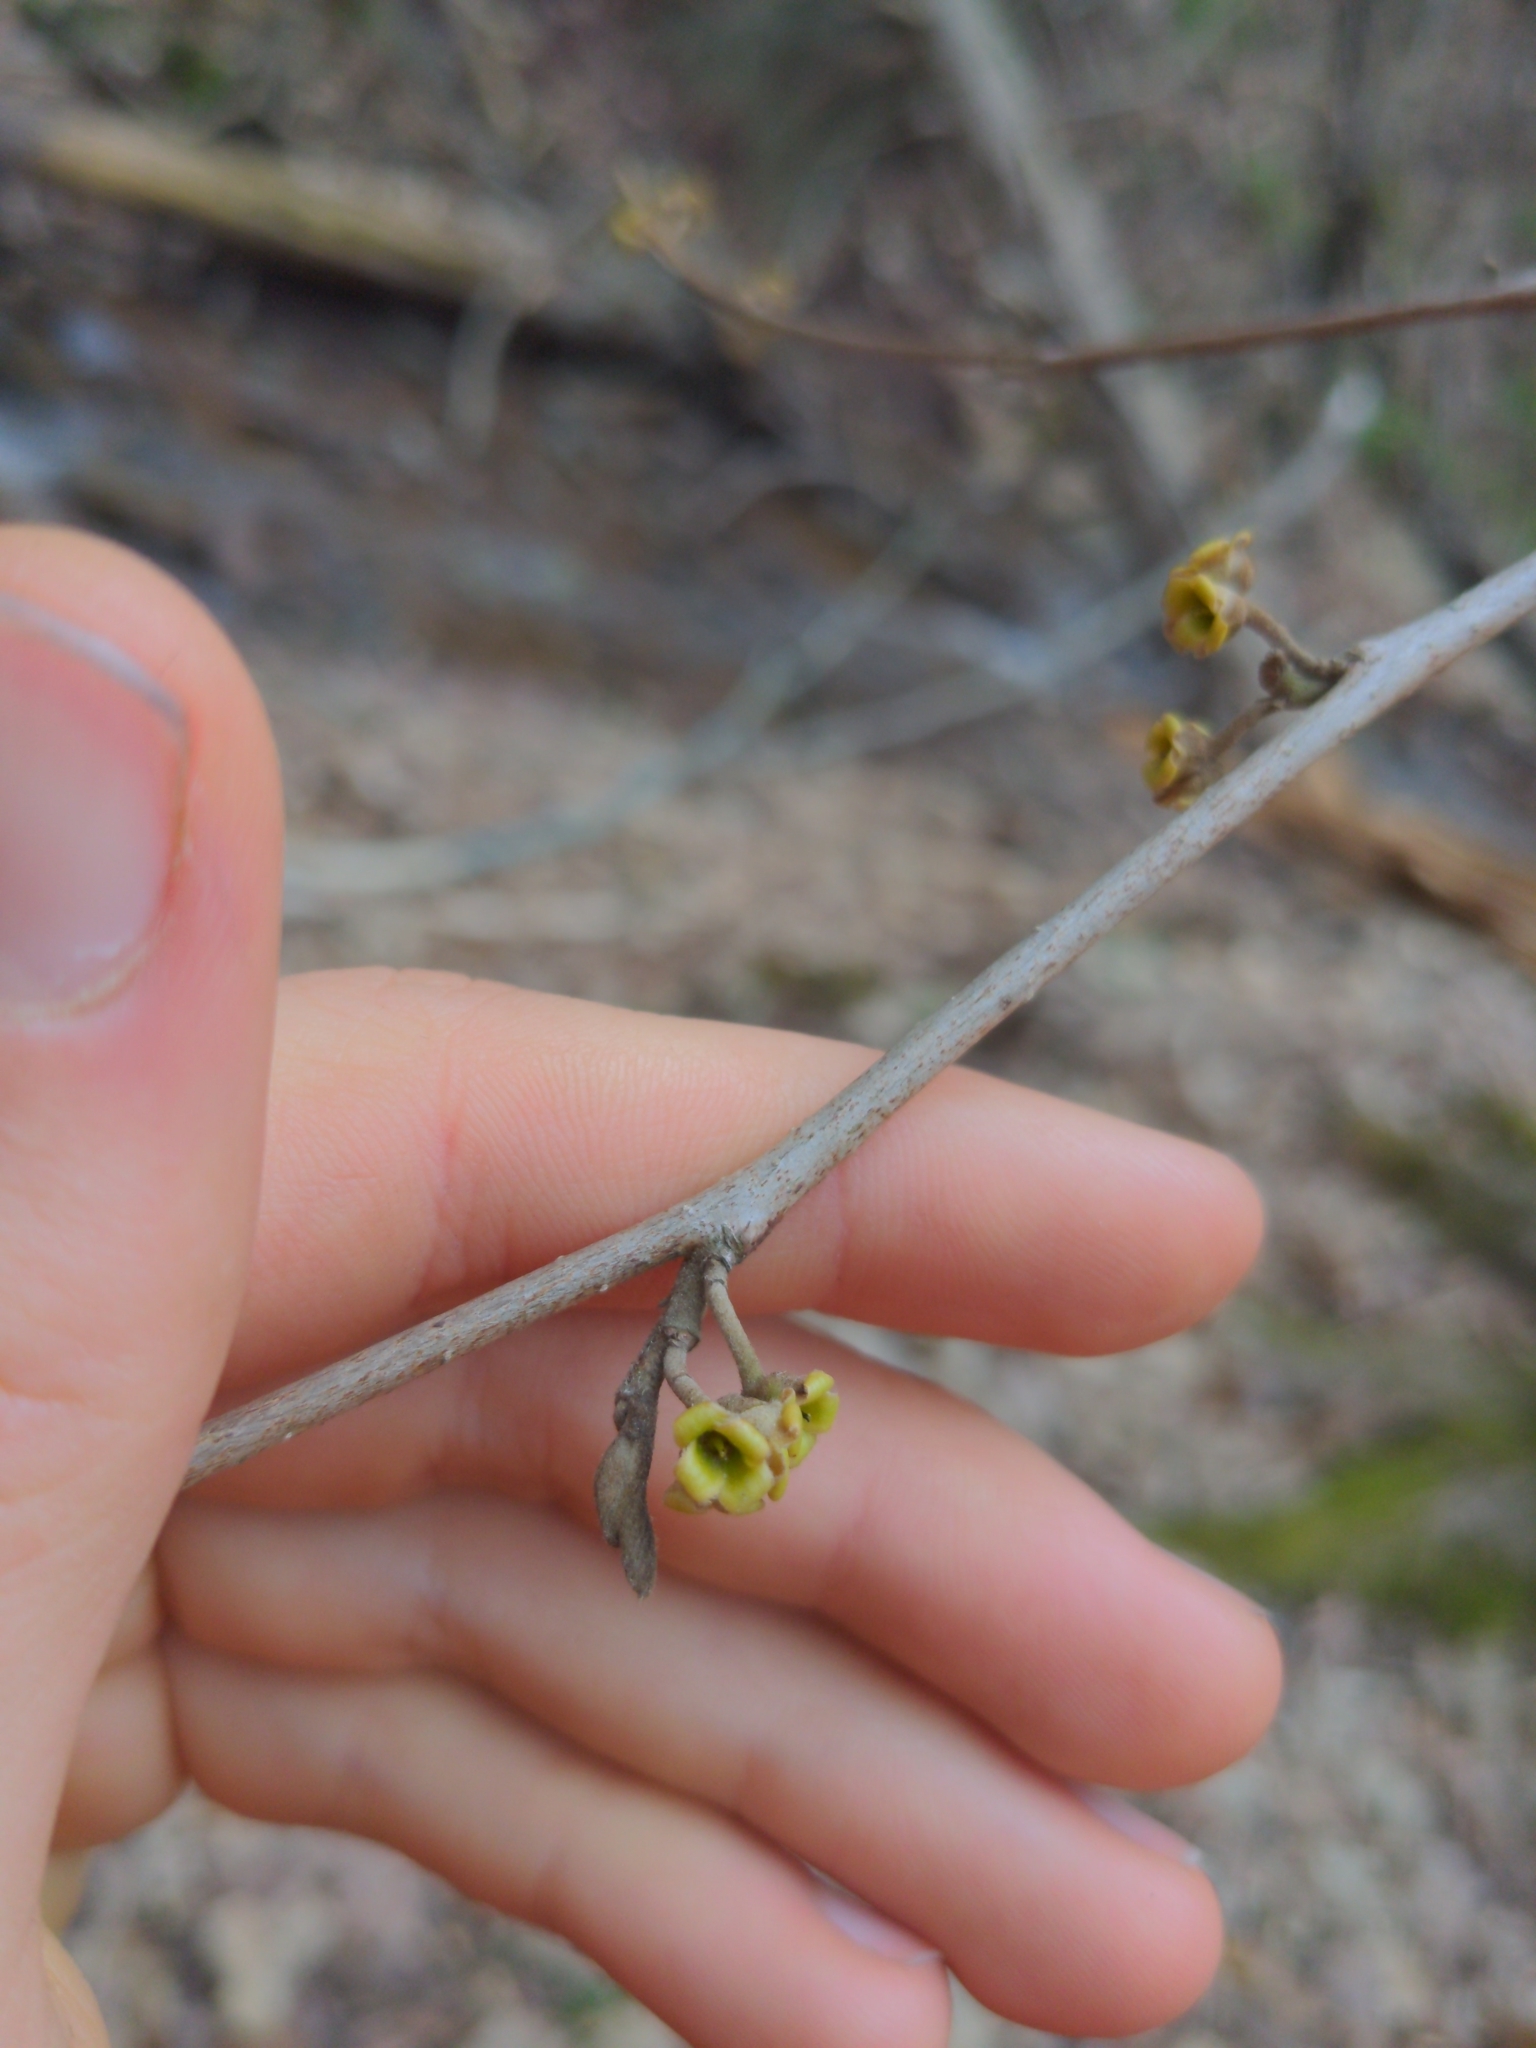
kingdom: Plantae
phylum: Tracheophyta
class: Magnoliopsida
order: Saxifragales
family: Hamamelidaceae
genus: Hamamelis
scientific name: Hamamelis virginiana
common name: Witch-hazel
